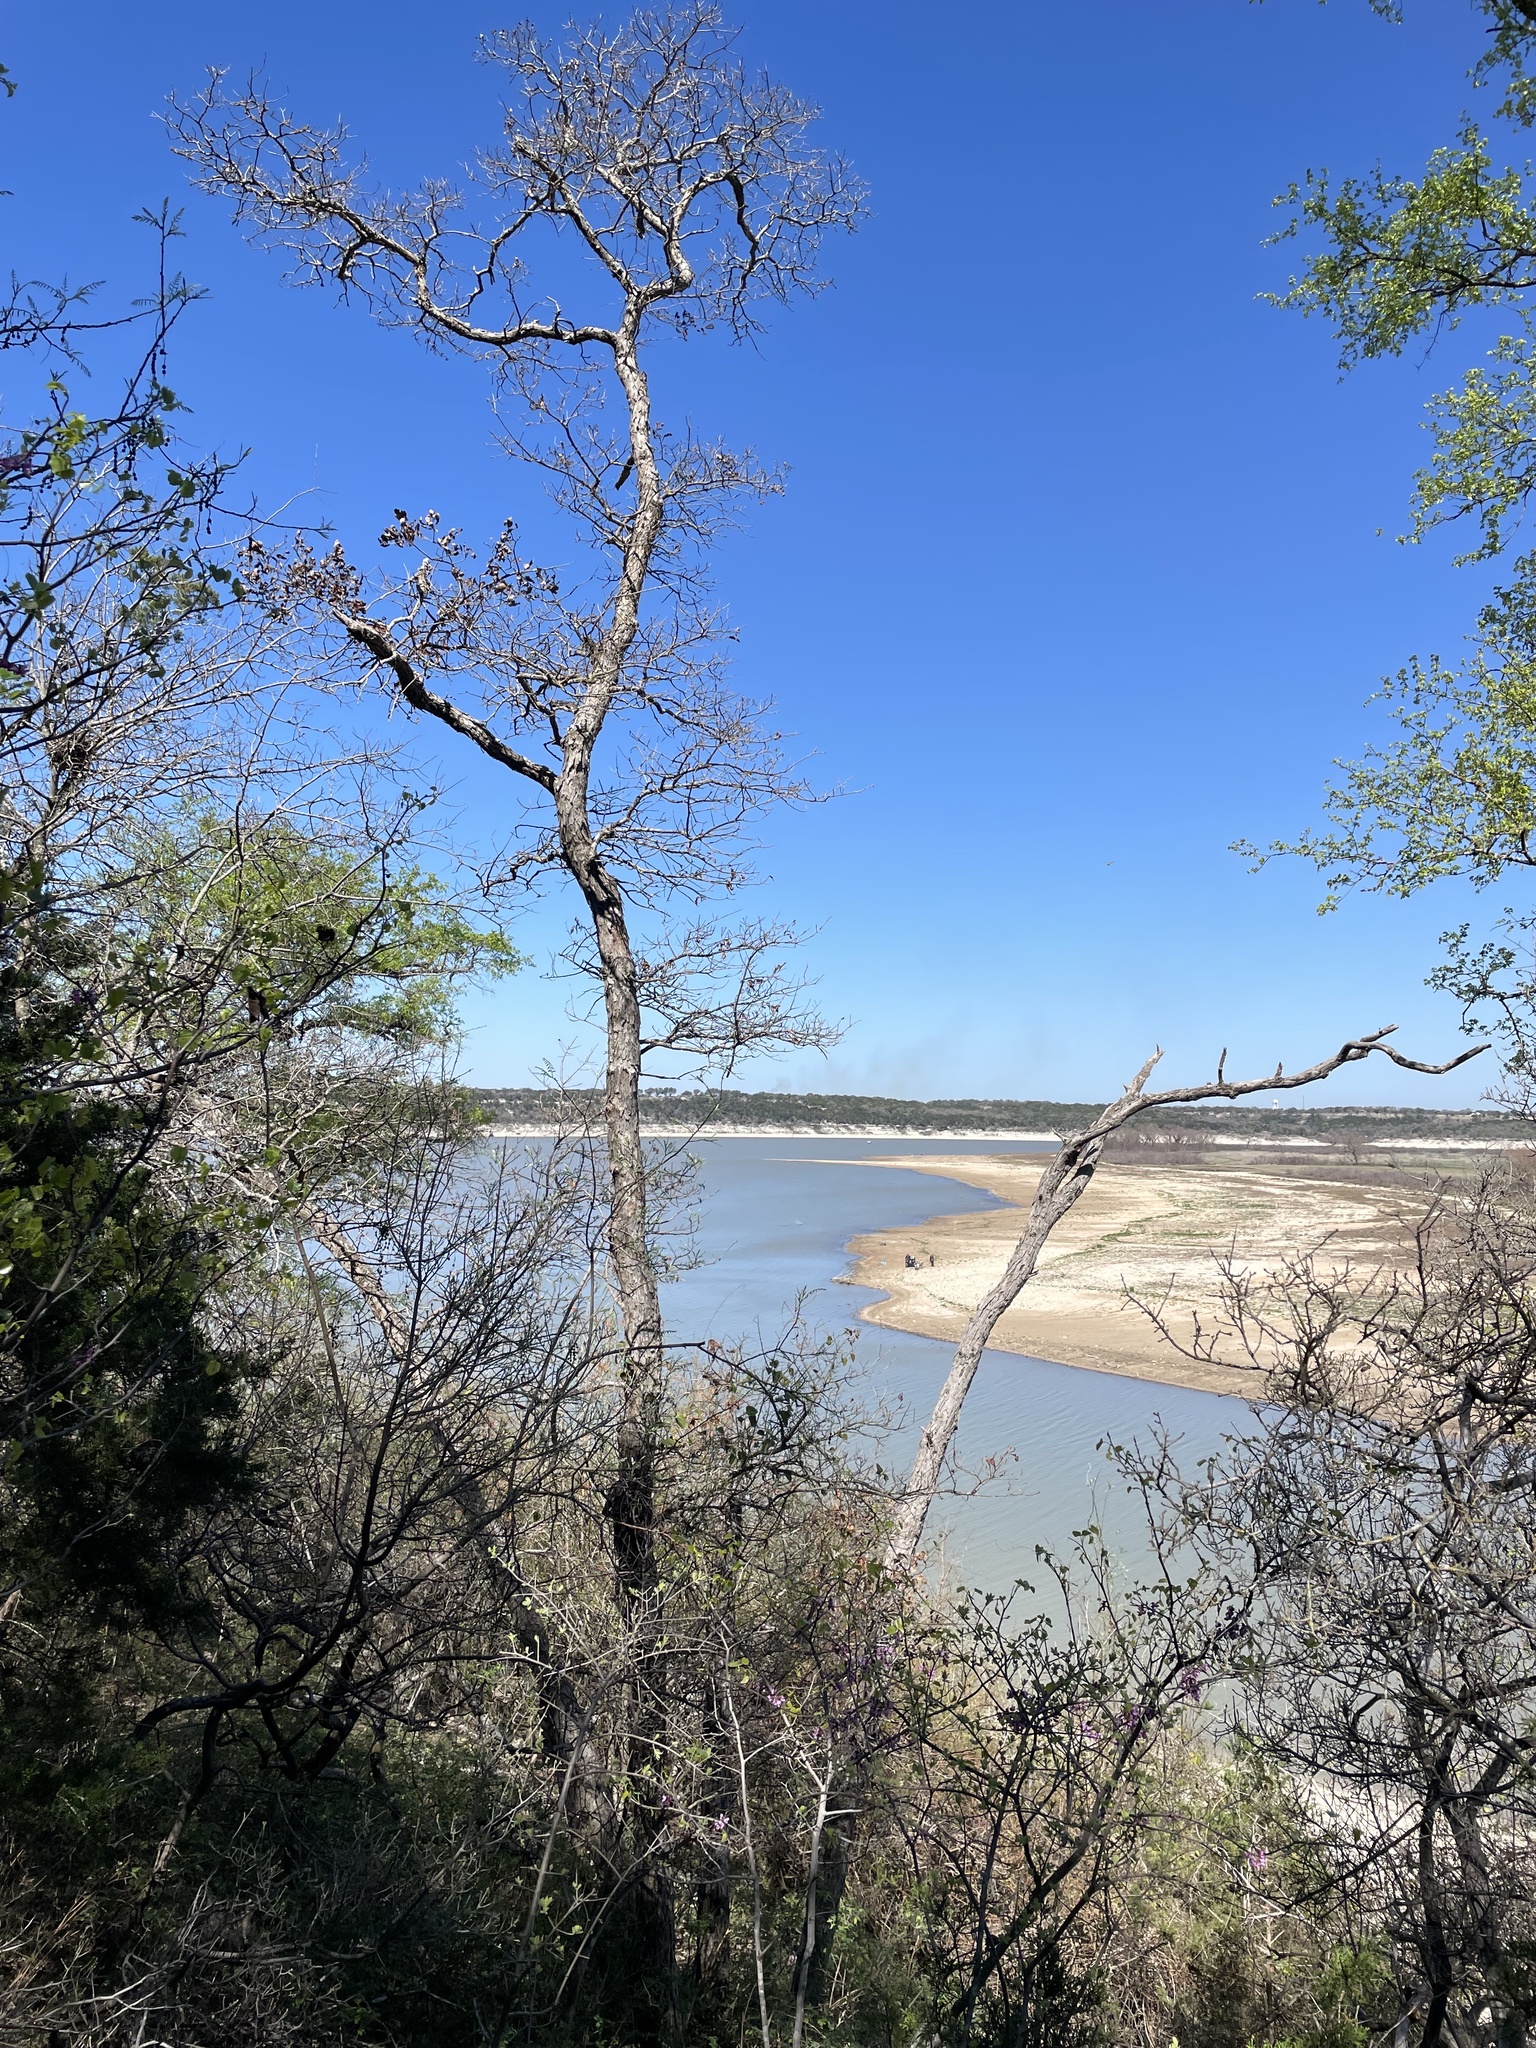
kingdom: Plantae
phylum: Tracheophyta
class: Magnoliopsida
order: Fagales
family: Fagaceae
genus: Quercus
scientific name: Quercus sinuata
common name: Durand oak
